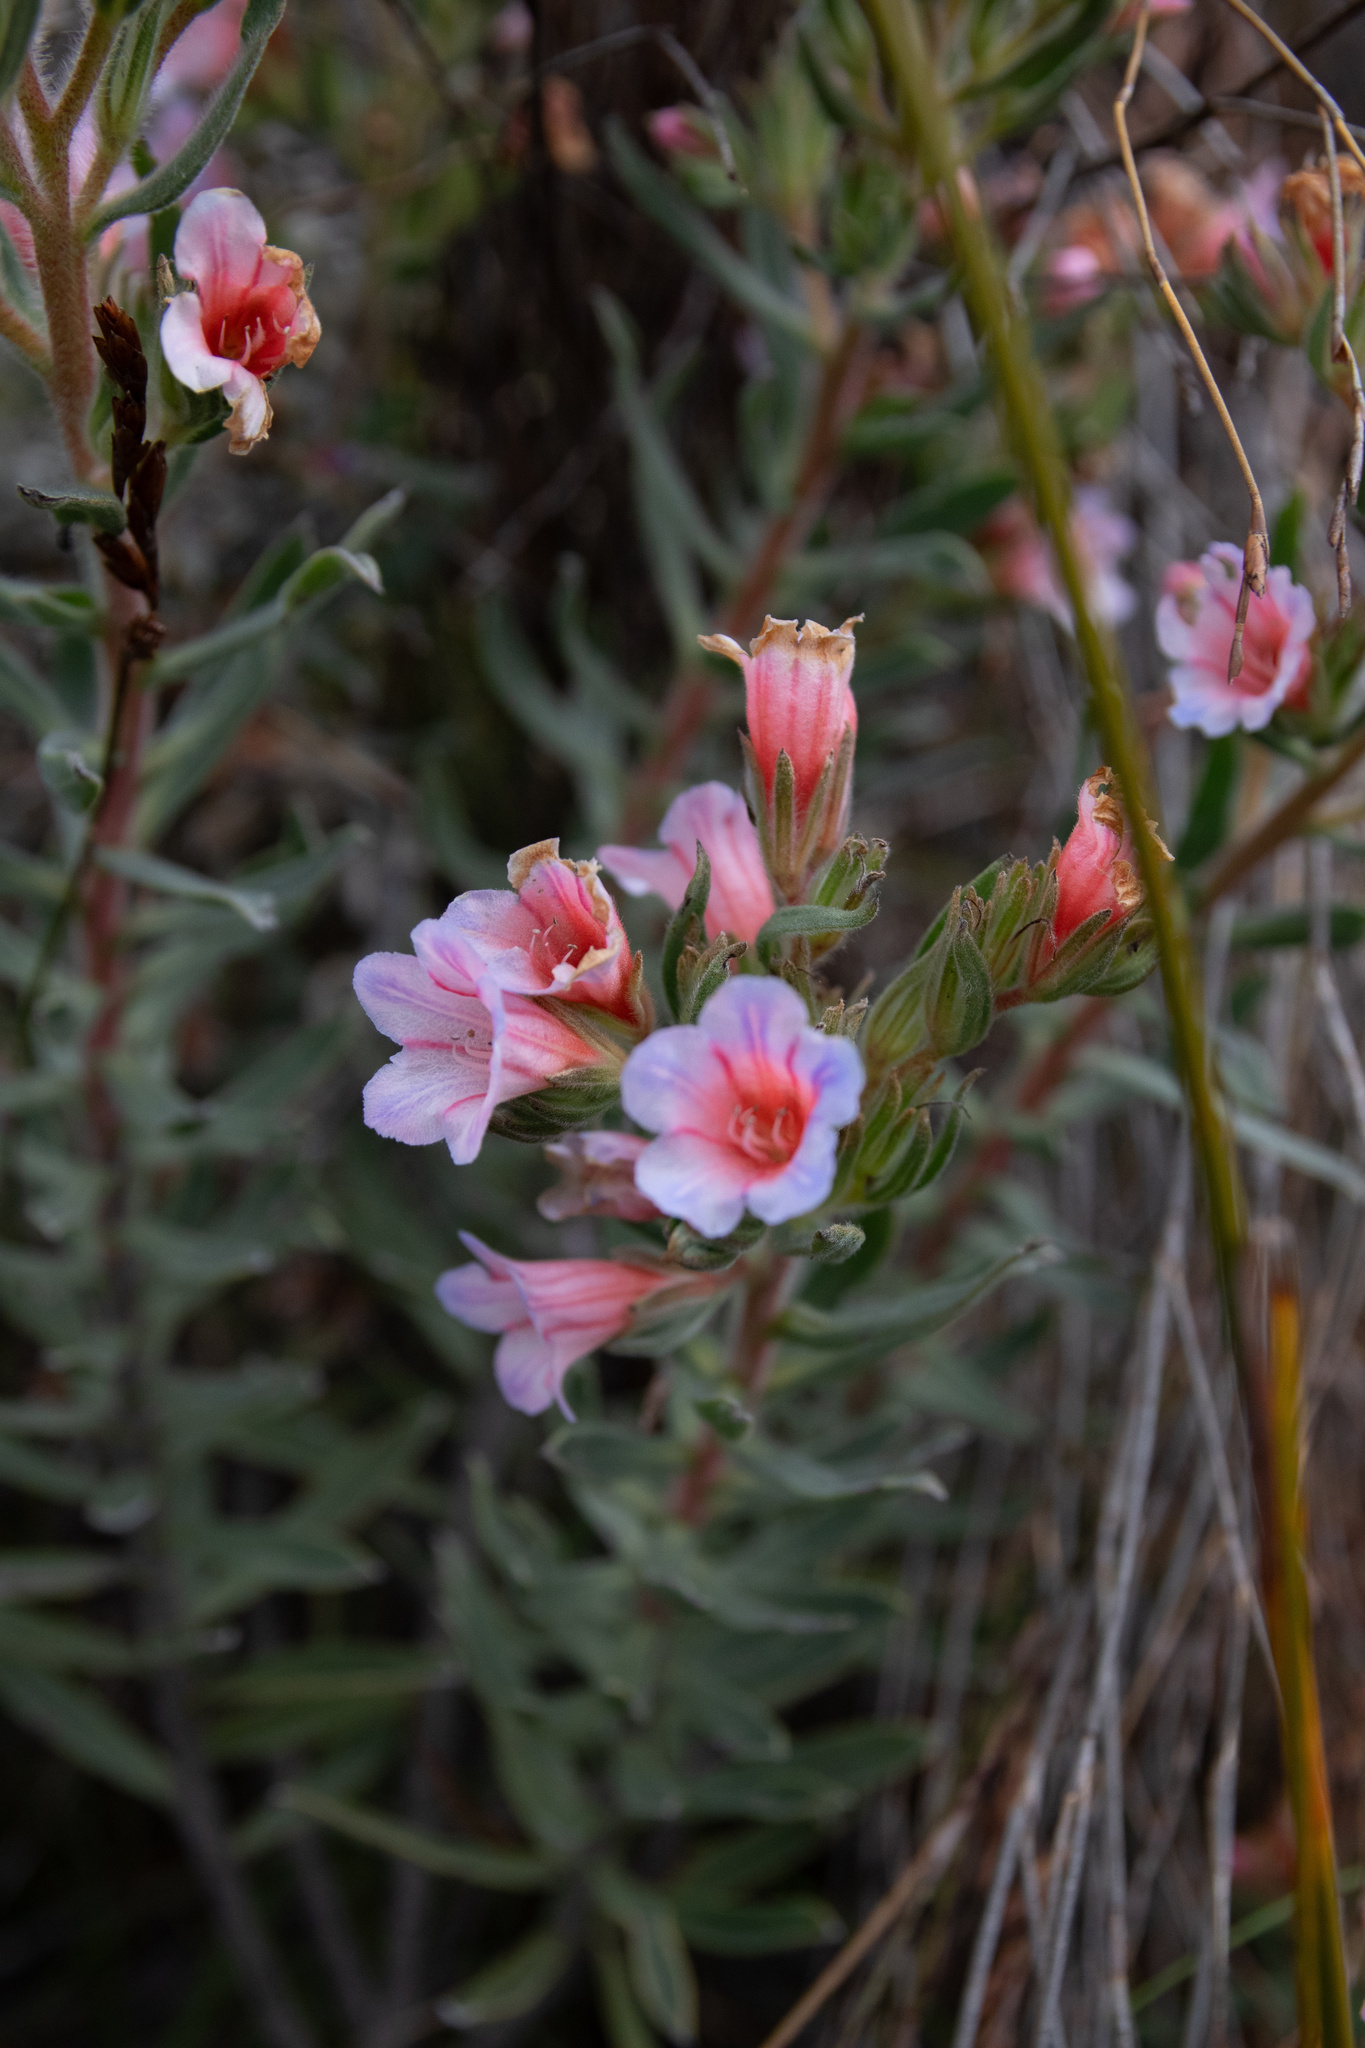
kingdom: Plantae
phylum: Tracheophyta
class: Magnoliopsida
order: Boraginales
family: Boraginaceae
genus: Lobostemon
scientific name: Lobostemon fruticosus
